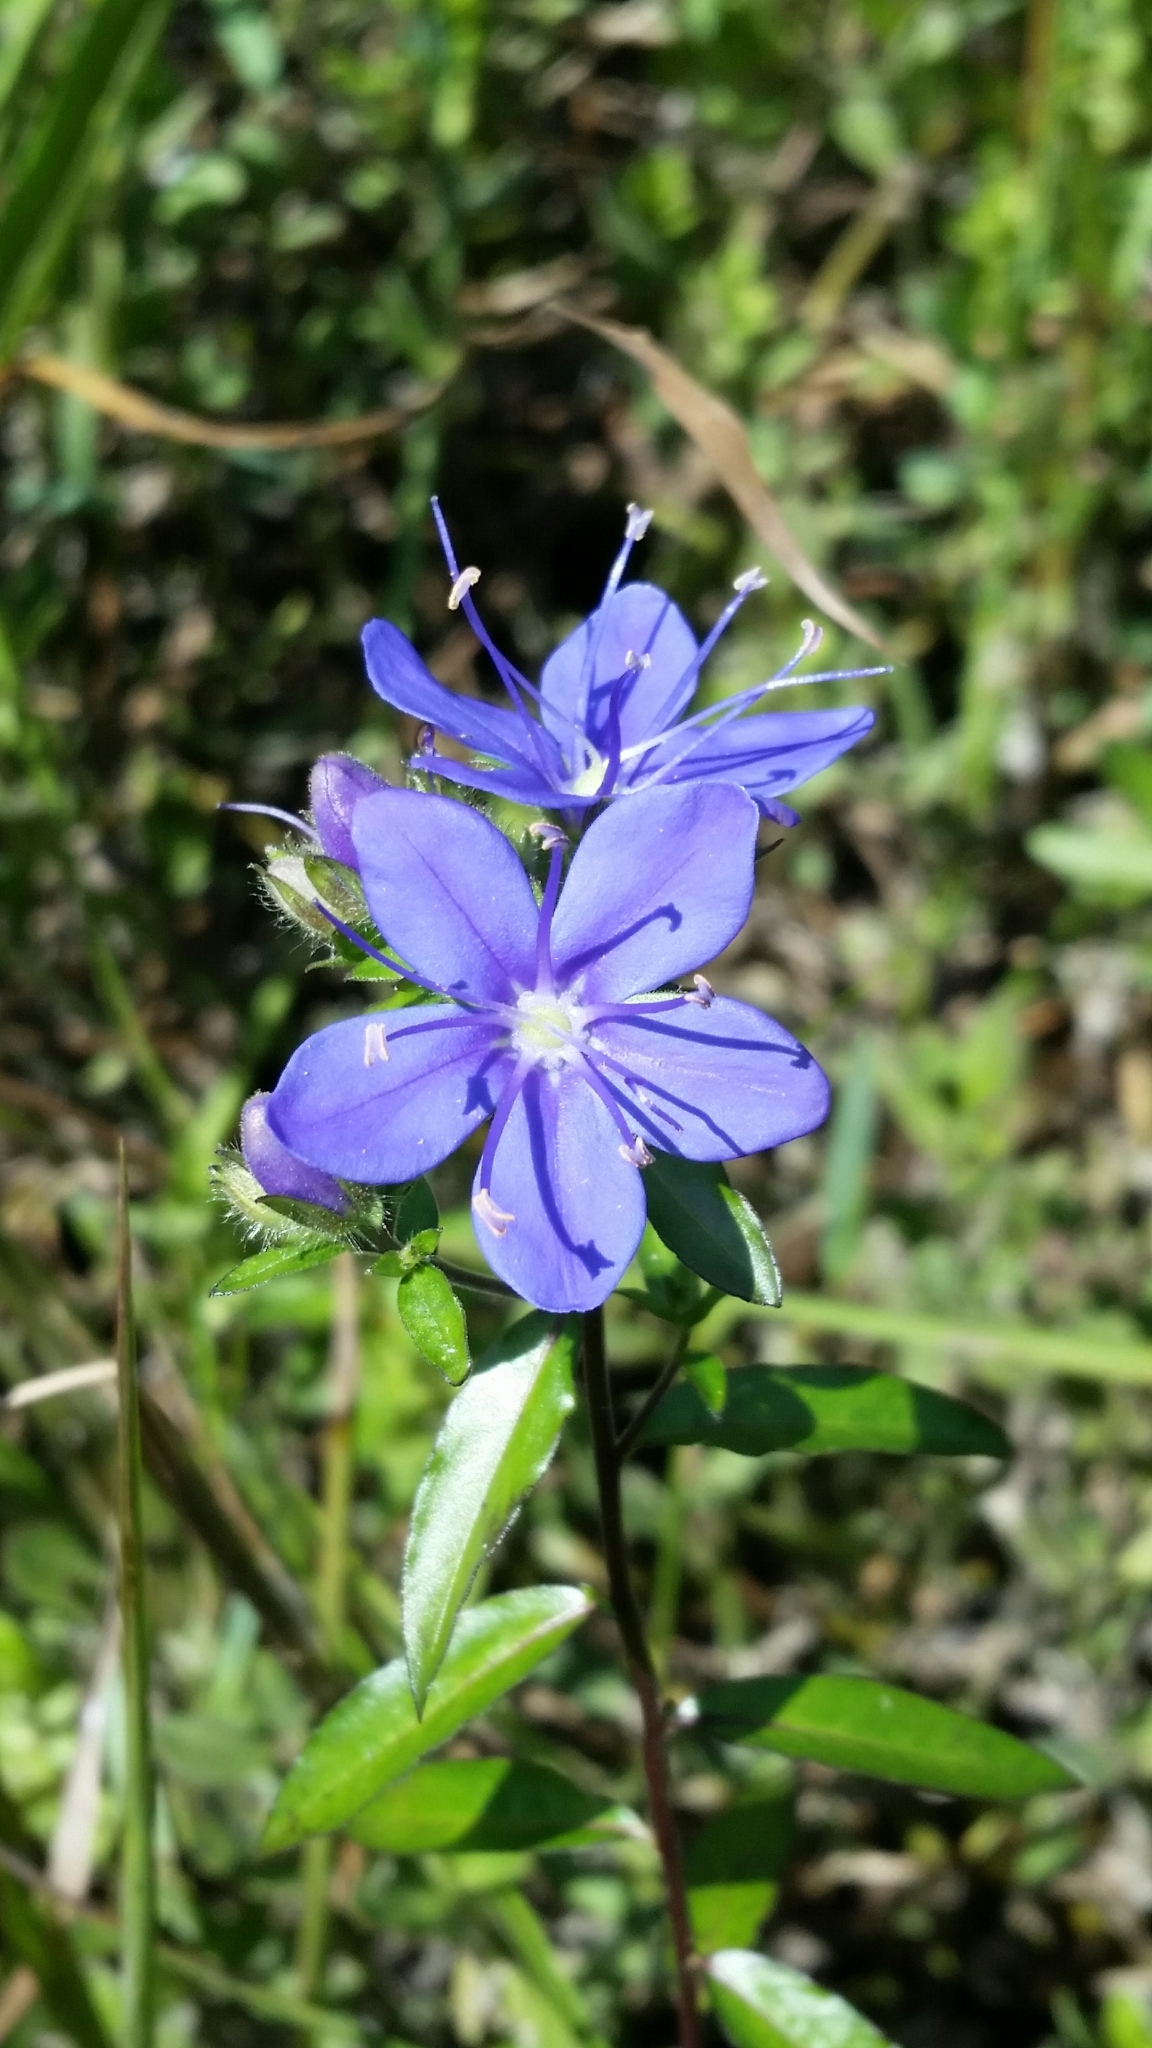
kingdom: Plantae
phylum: Tracheophyta
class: Magnoliopsida
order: Solanales
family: Hydroleaceae
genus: Hydrolea
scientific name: Hydrolea corymbosa
